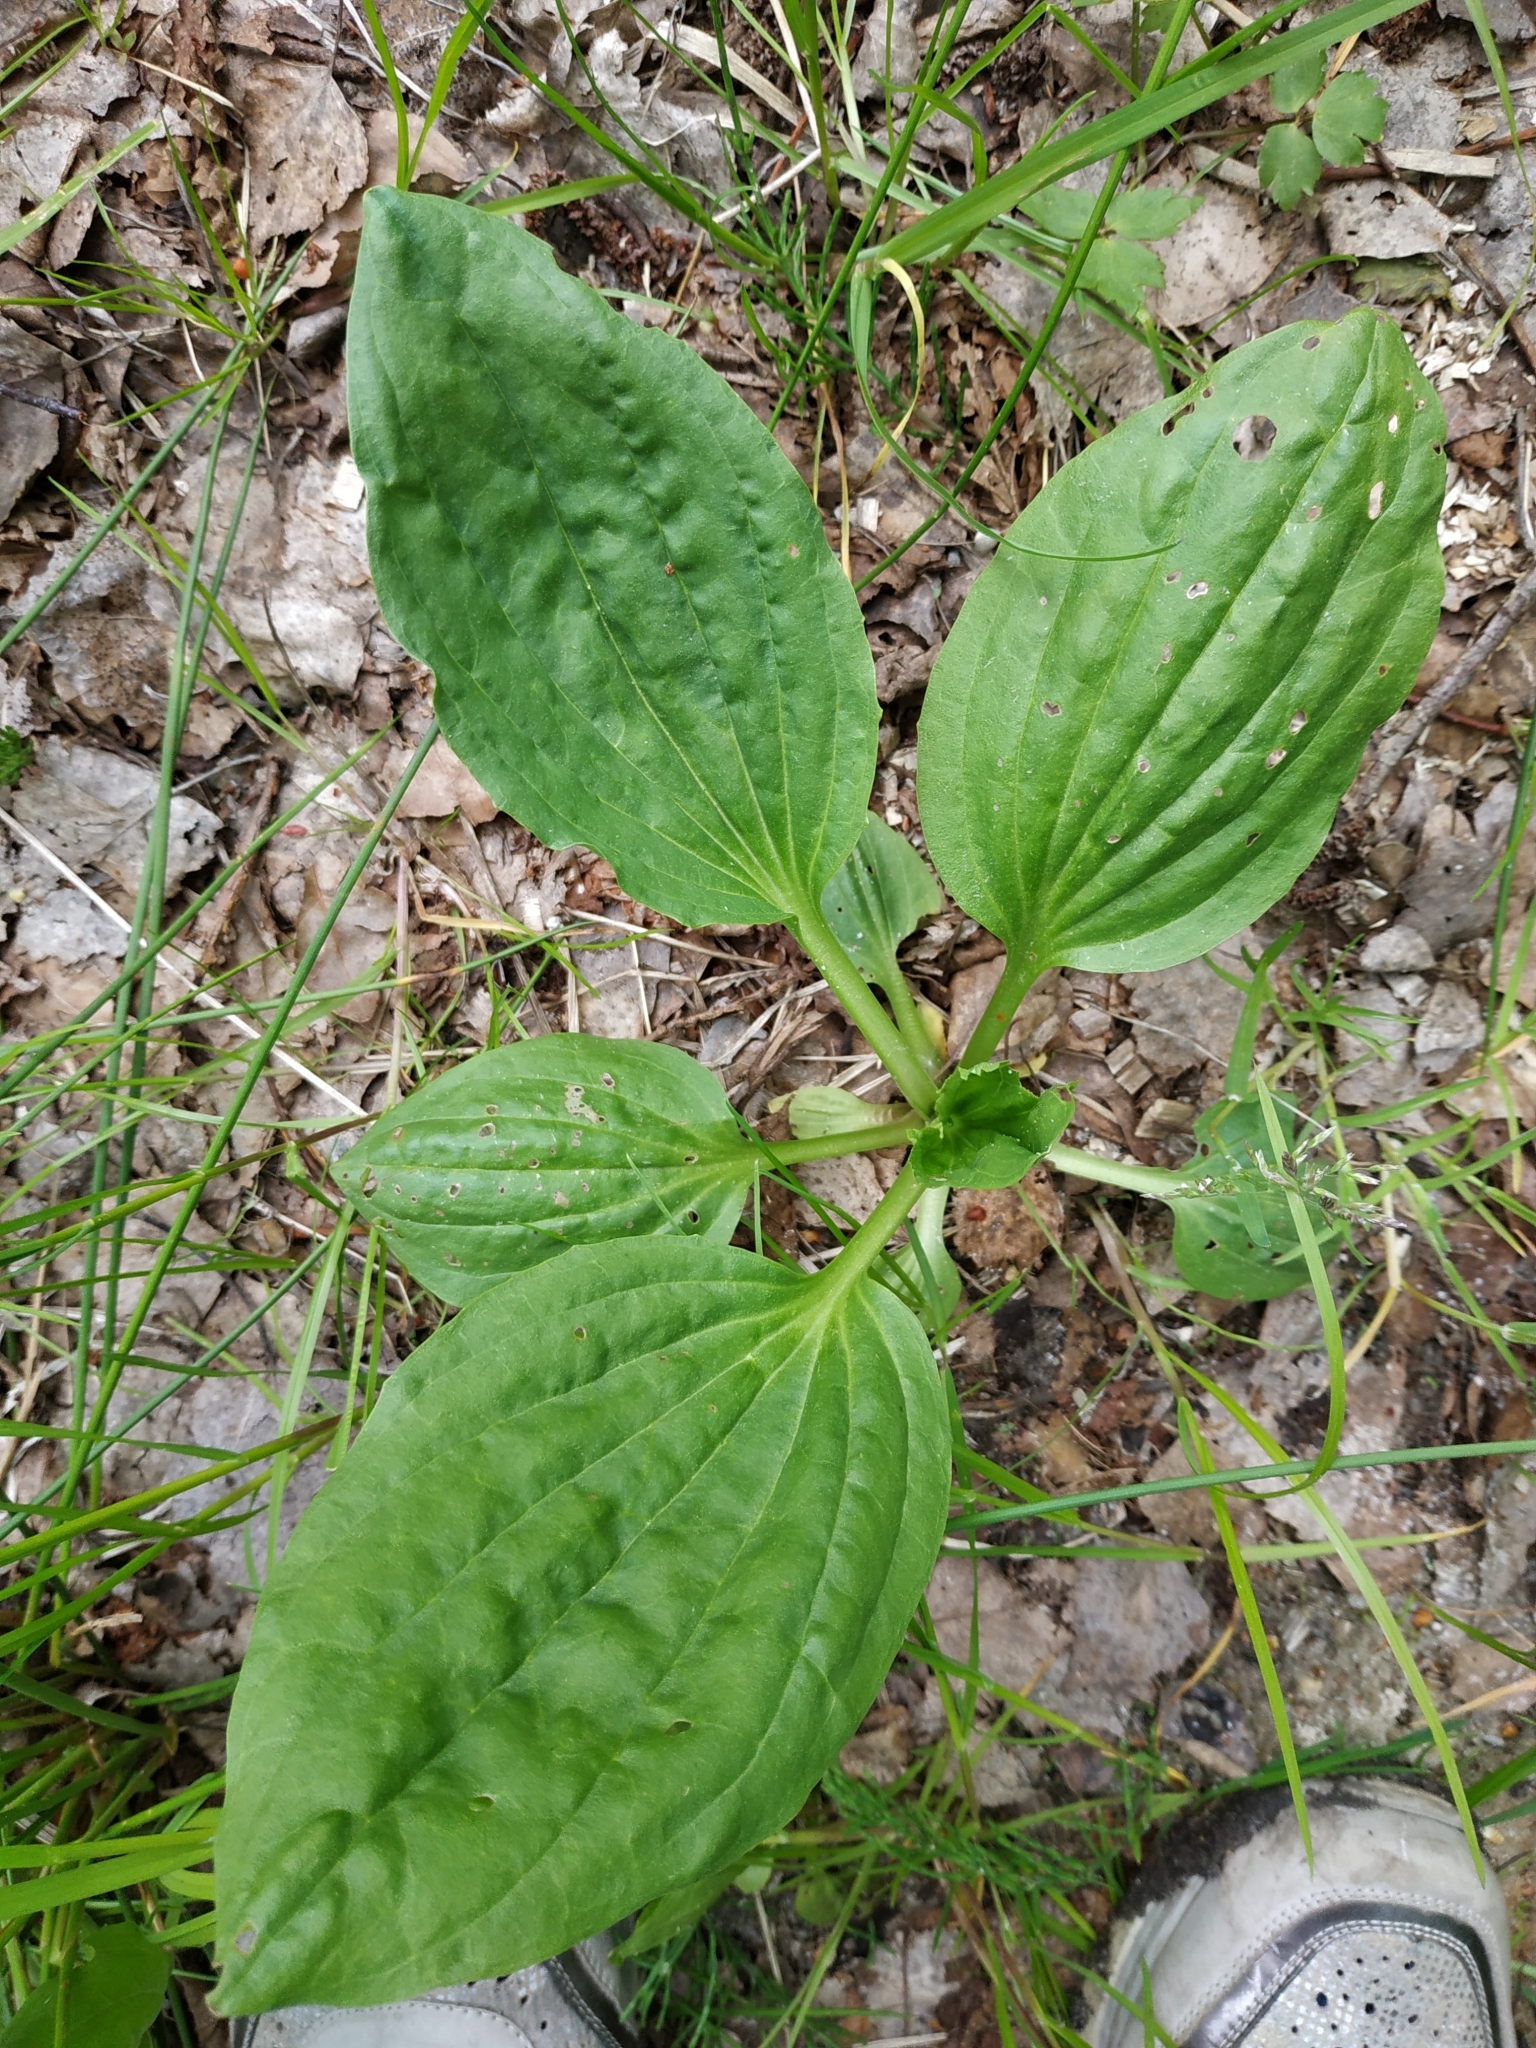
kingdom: Plantae
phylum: Tracheophyta
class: Magnoliopsida
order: Lamiales
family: Plantaginaceae
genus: Plantago
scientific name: Plantago major
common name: Common plantain
